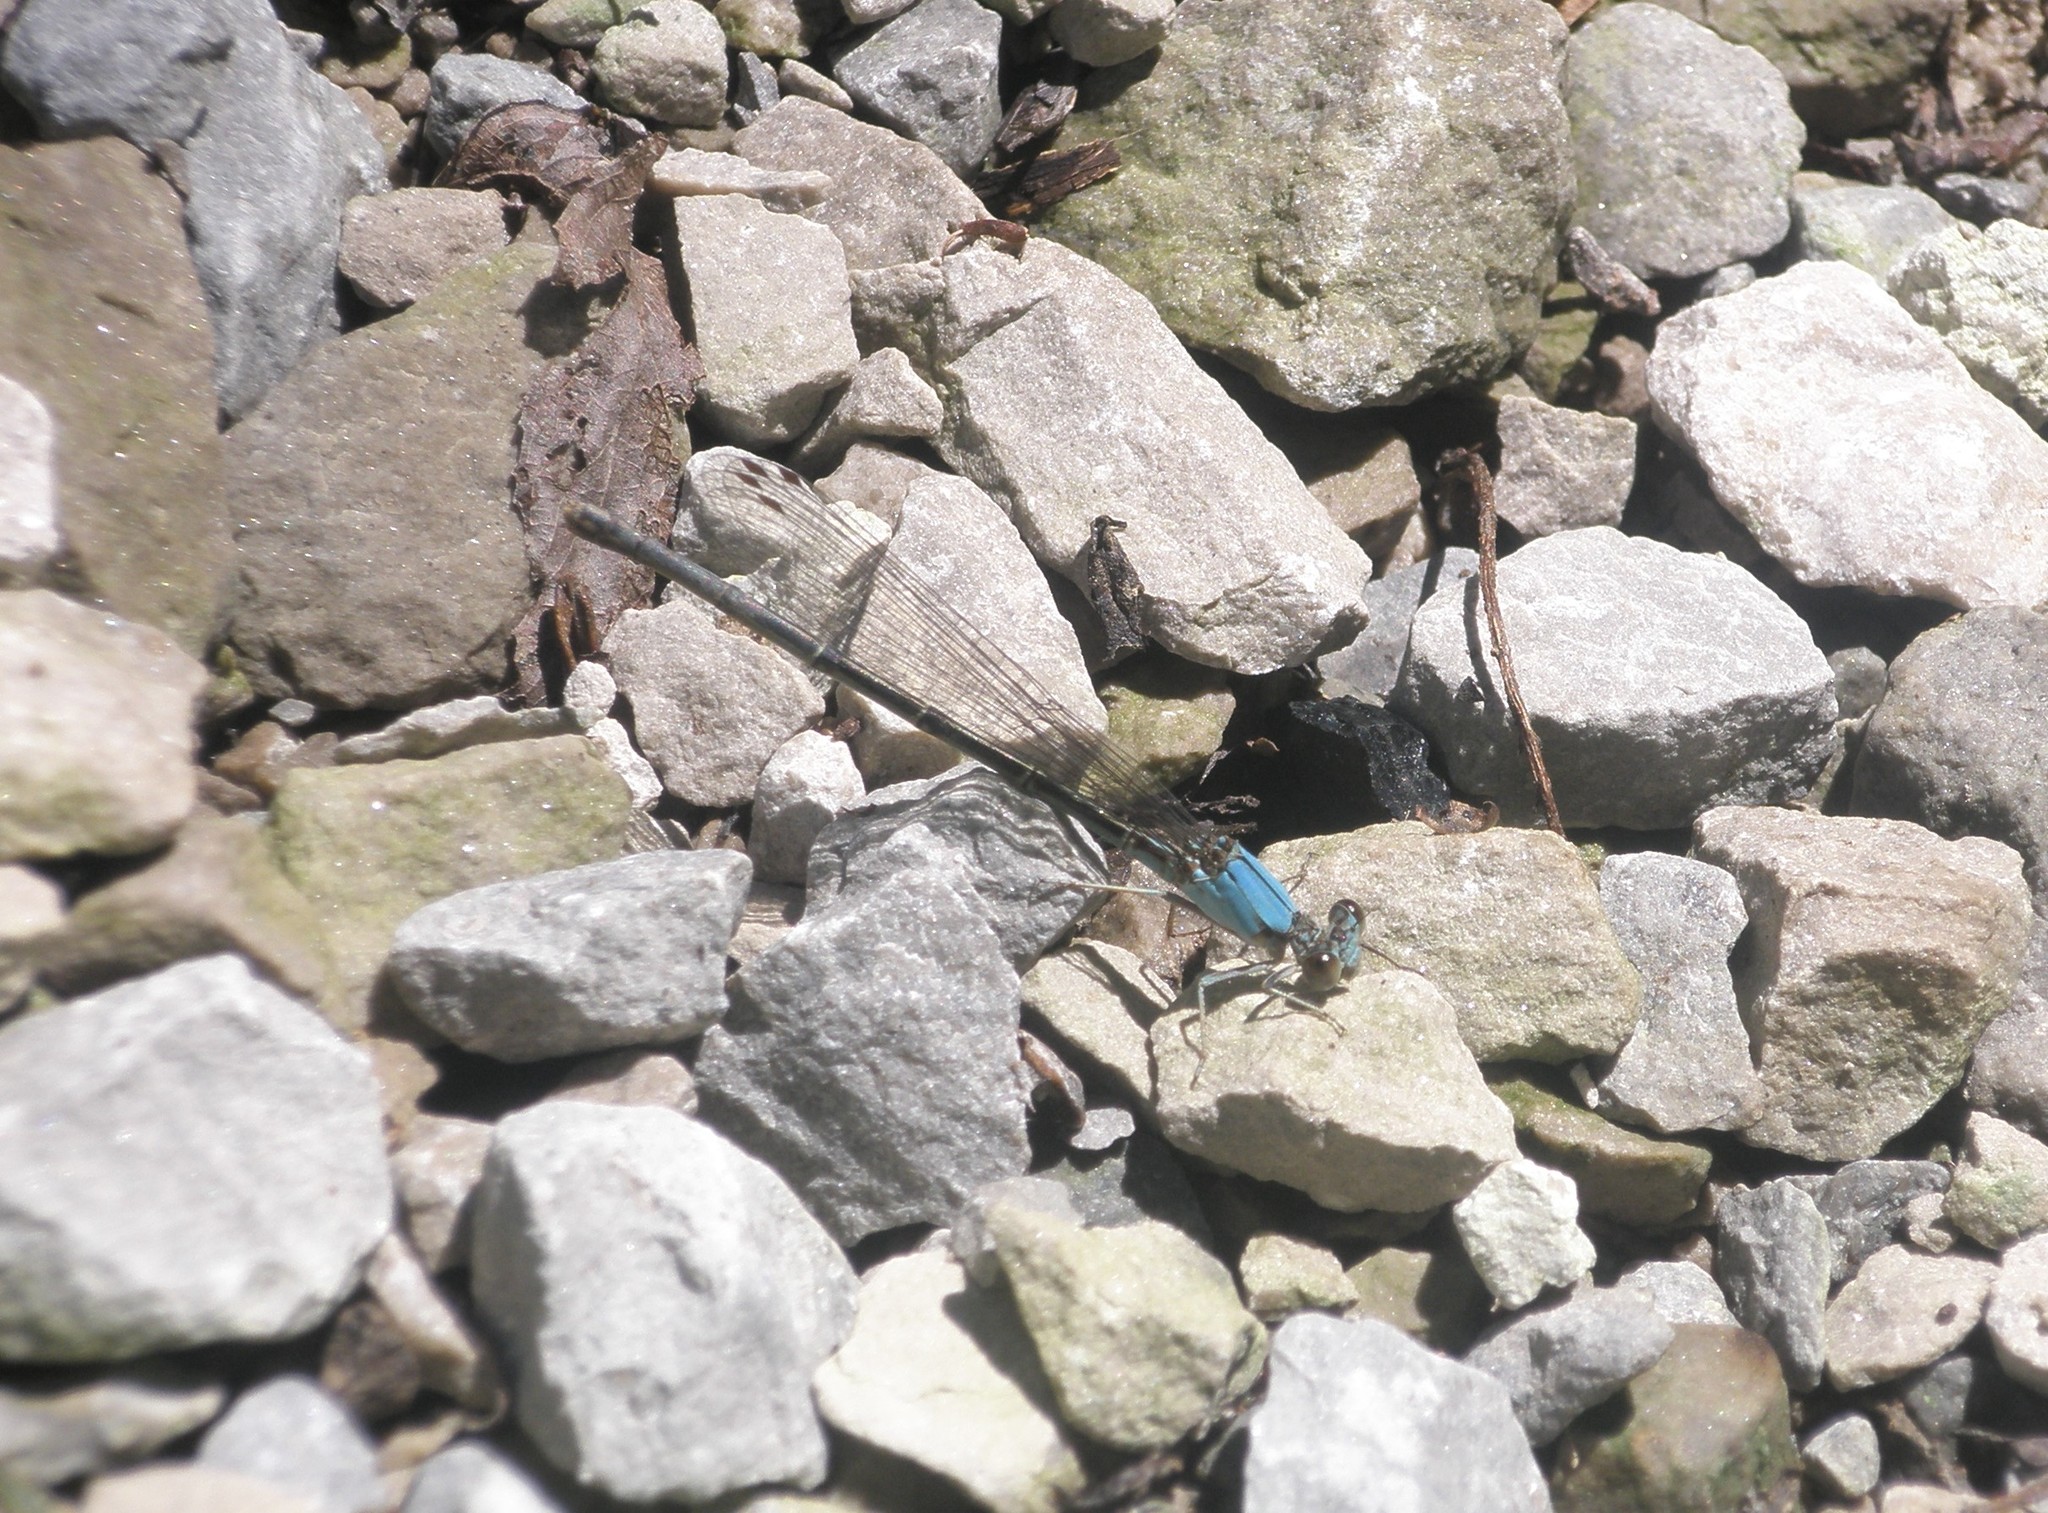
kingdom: Animalia
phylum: Arthropoda
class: Insecta
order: Odonata
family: Coenagrionidae
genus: Argia
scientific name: Argia
